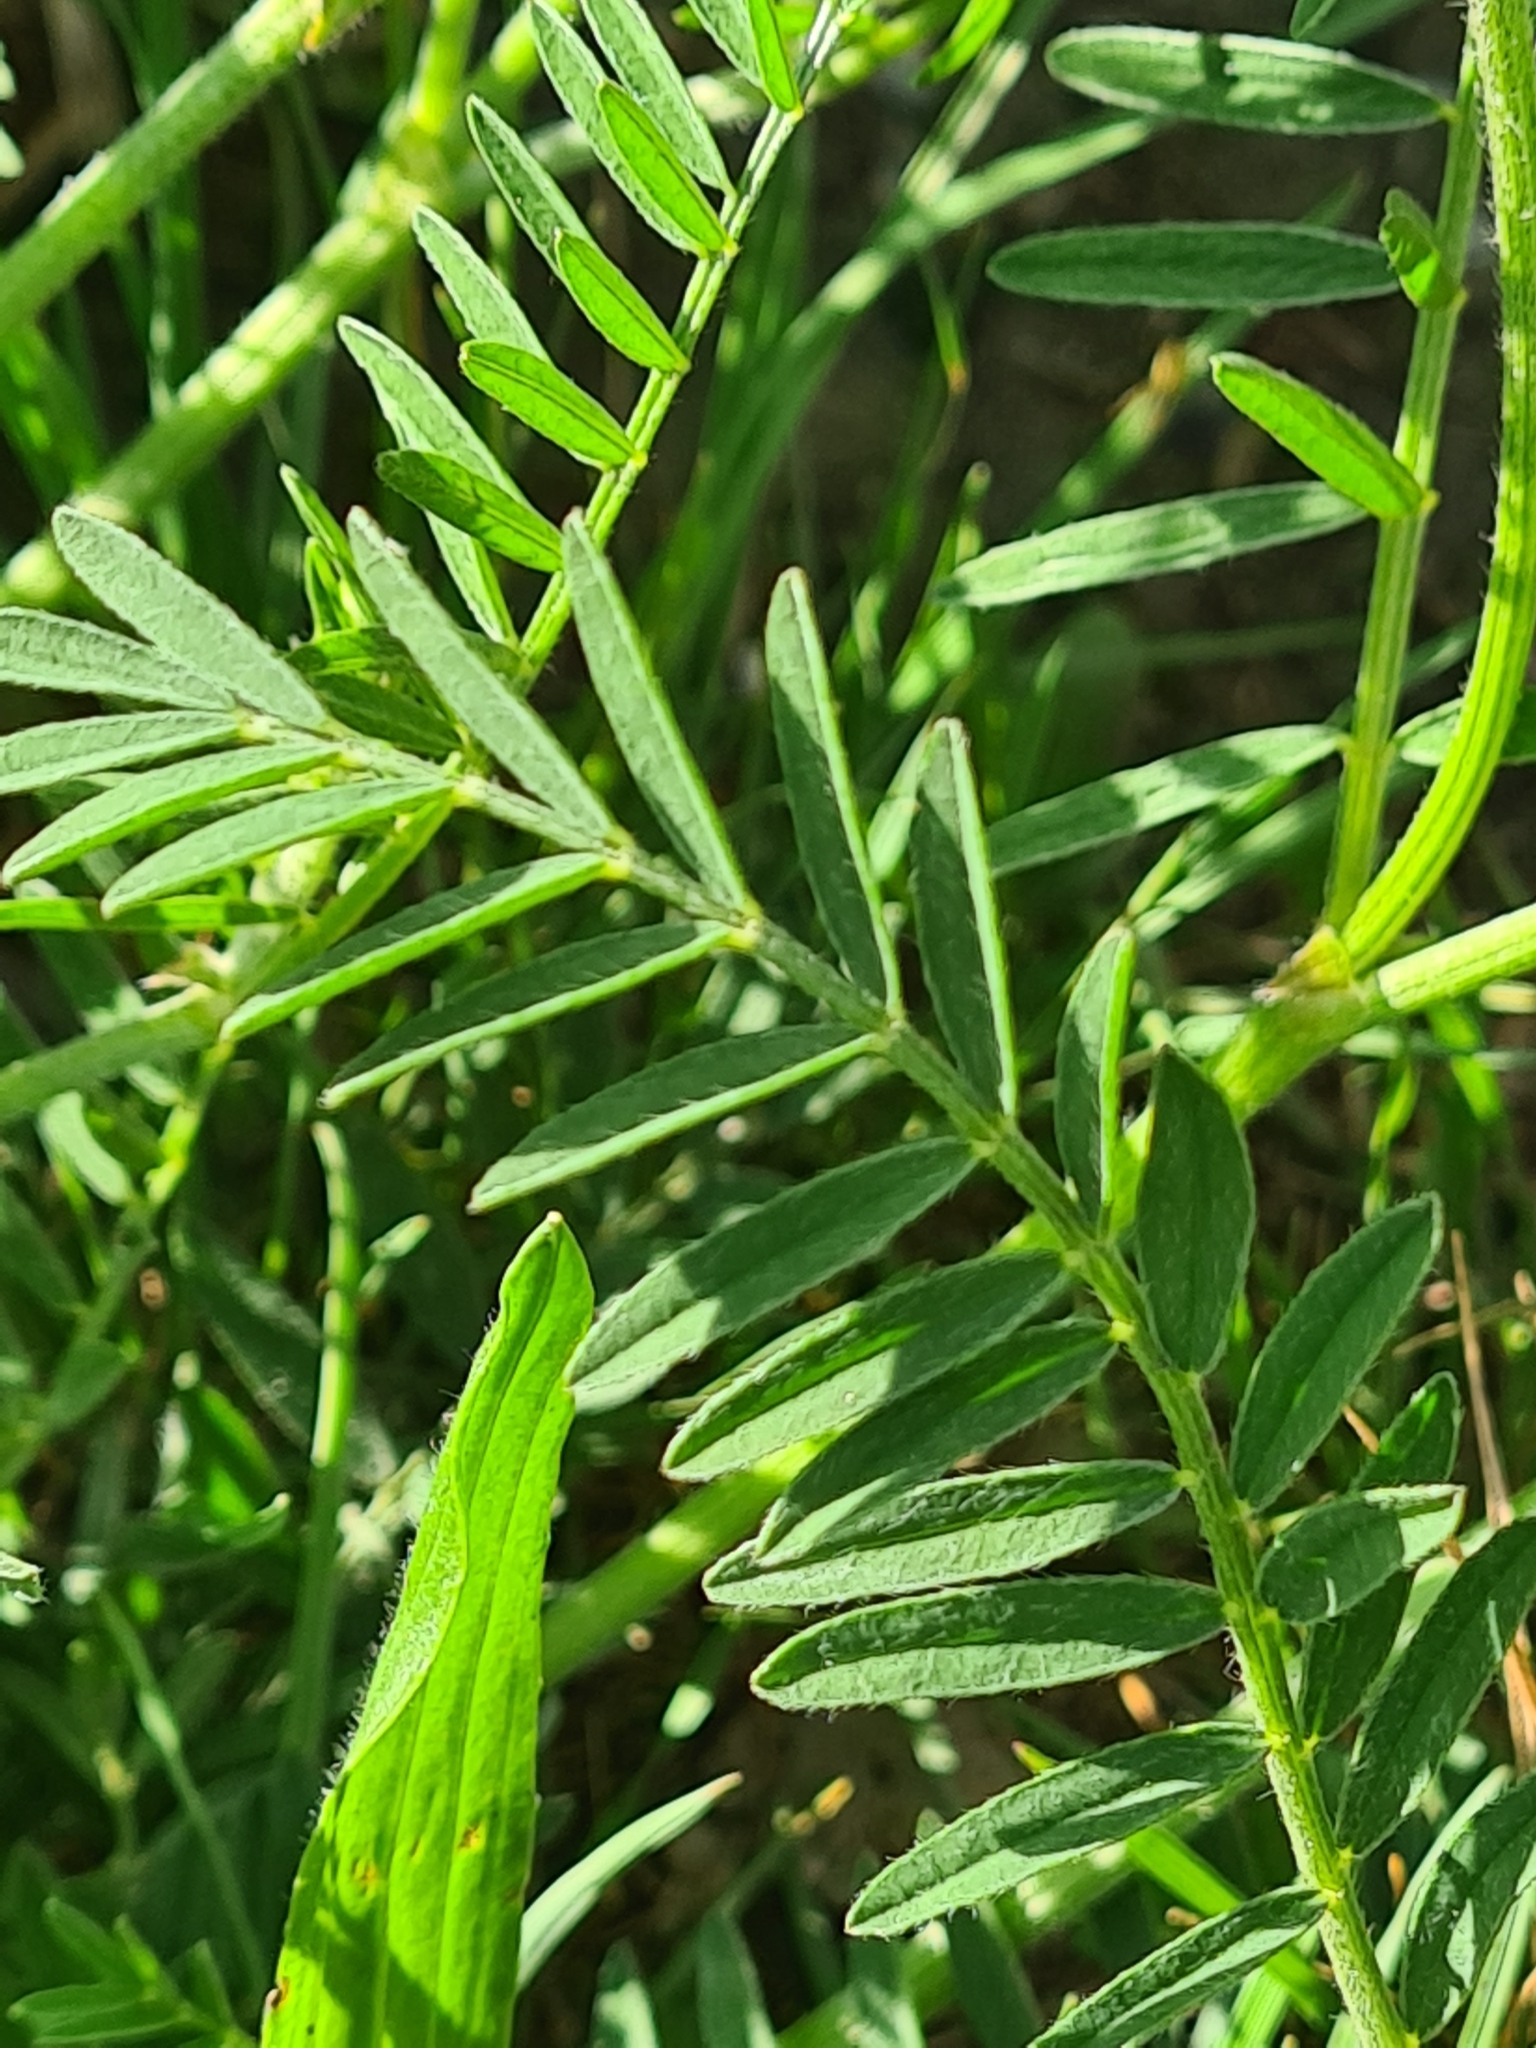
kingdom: Plantae
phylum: Tracheophyta
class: Magnoliopsida
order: Fabales
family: Fabaceae
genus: Astragalus
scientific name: Astragalus onobrychis
